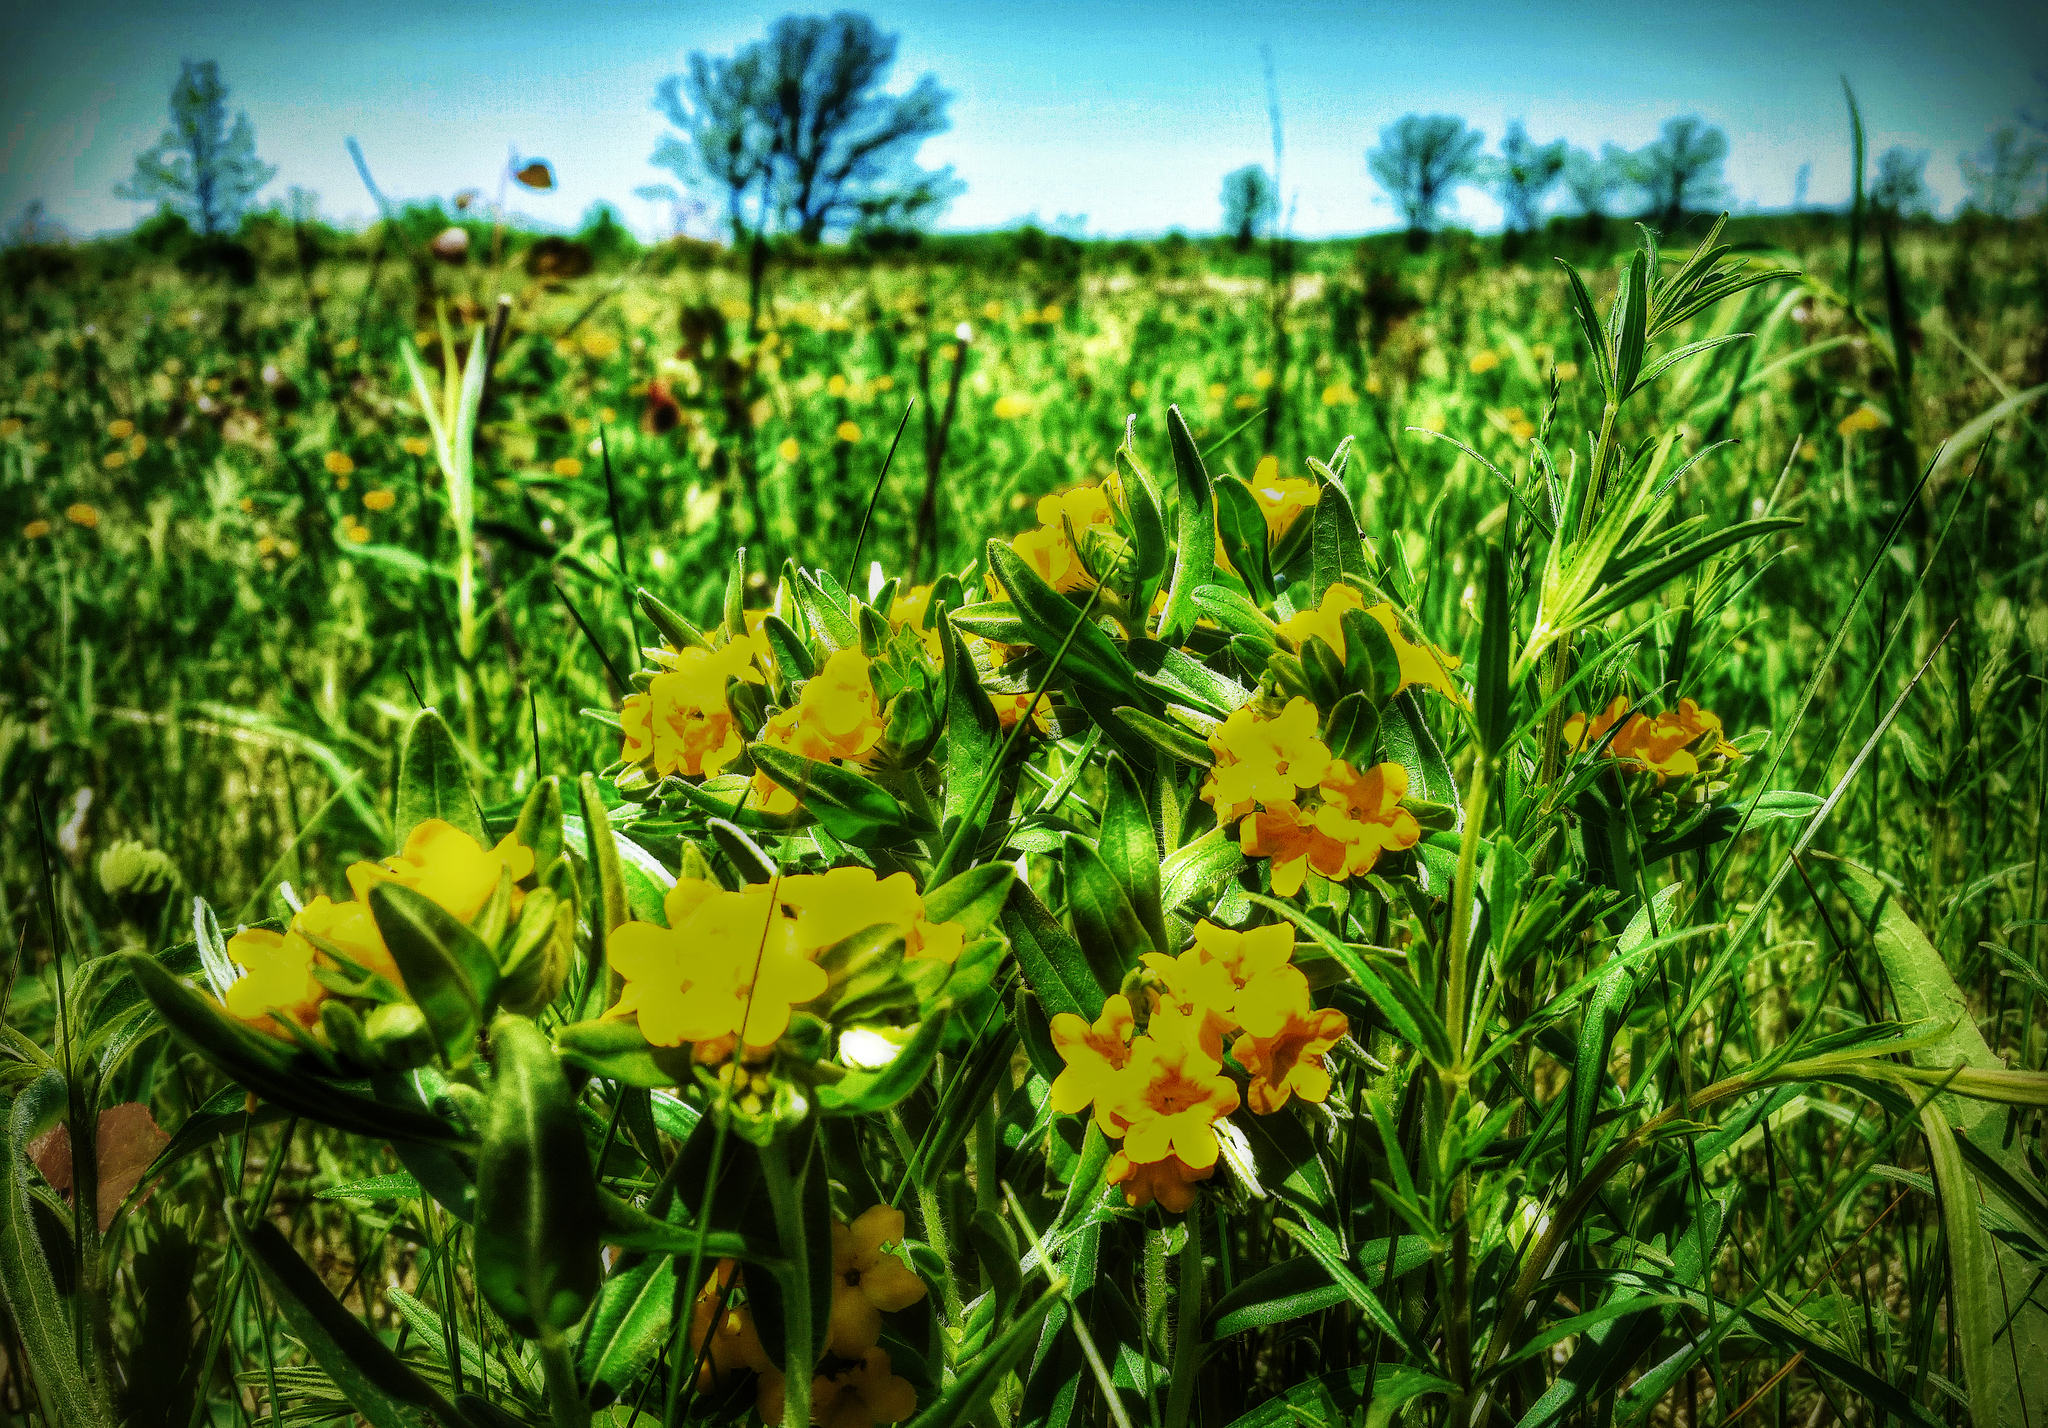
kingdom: Plantae
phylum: Tracheophyta
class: Magnoliopsida
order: Boraginales
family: Boraginaceae
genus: Lithospermum
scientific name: Lithospermum canescens
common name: Hoary puccoon
